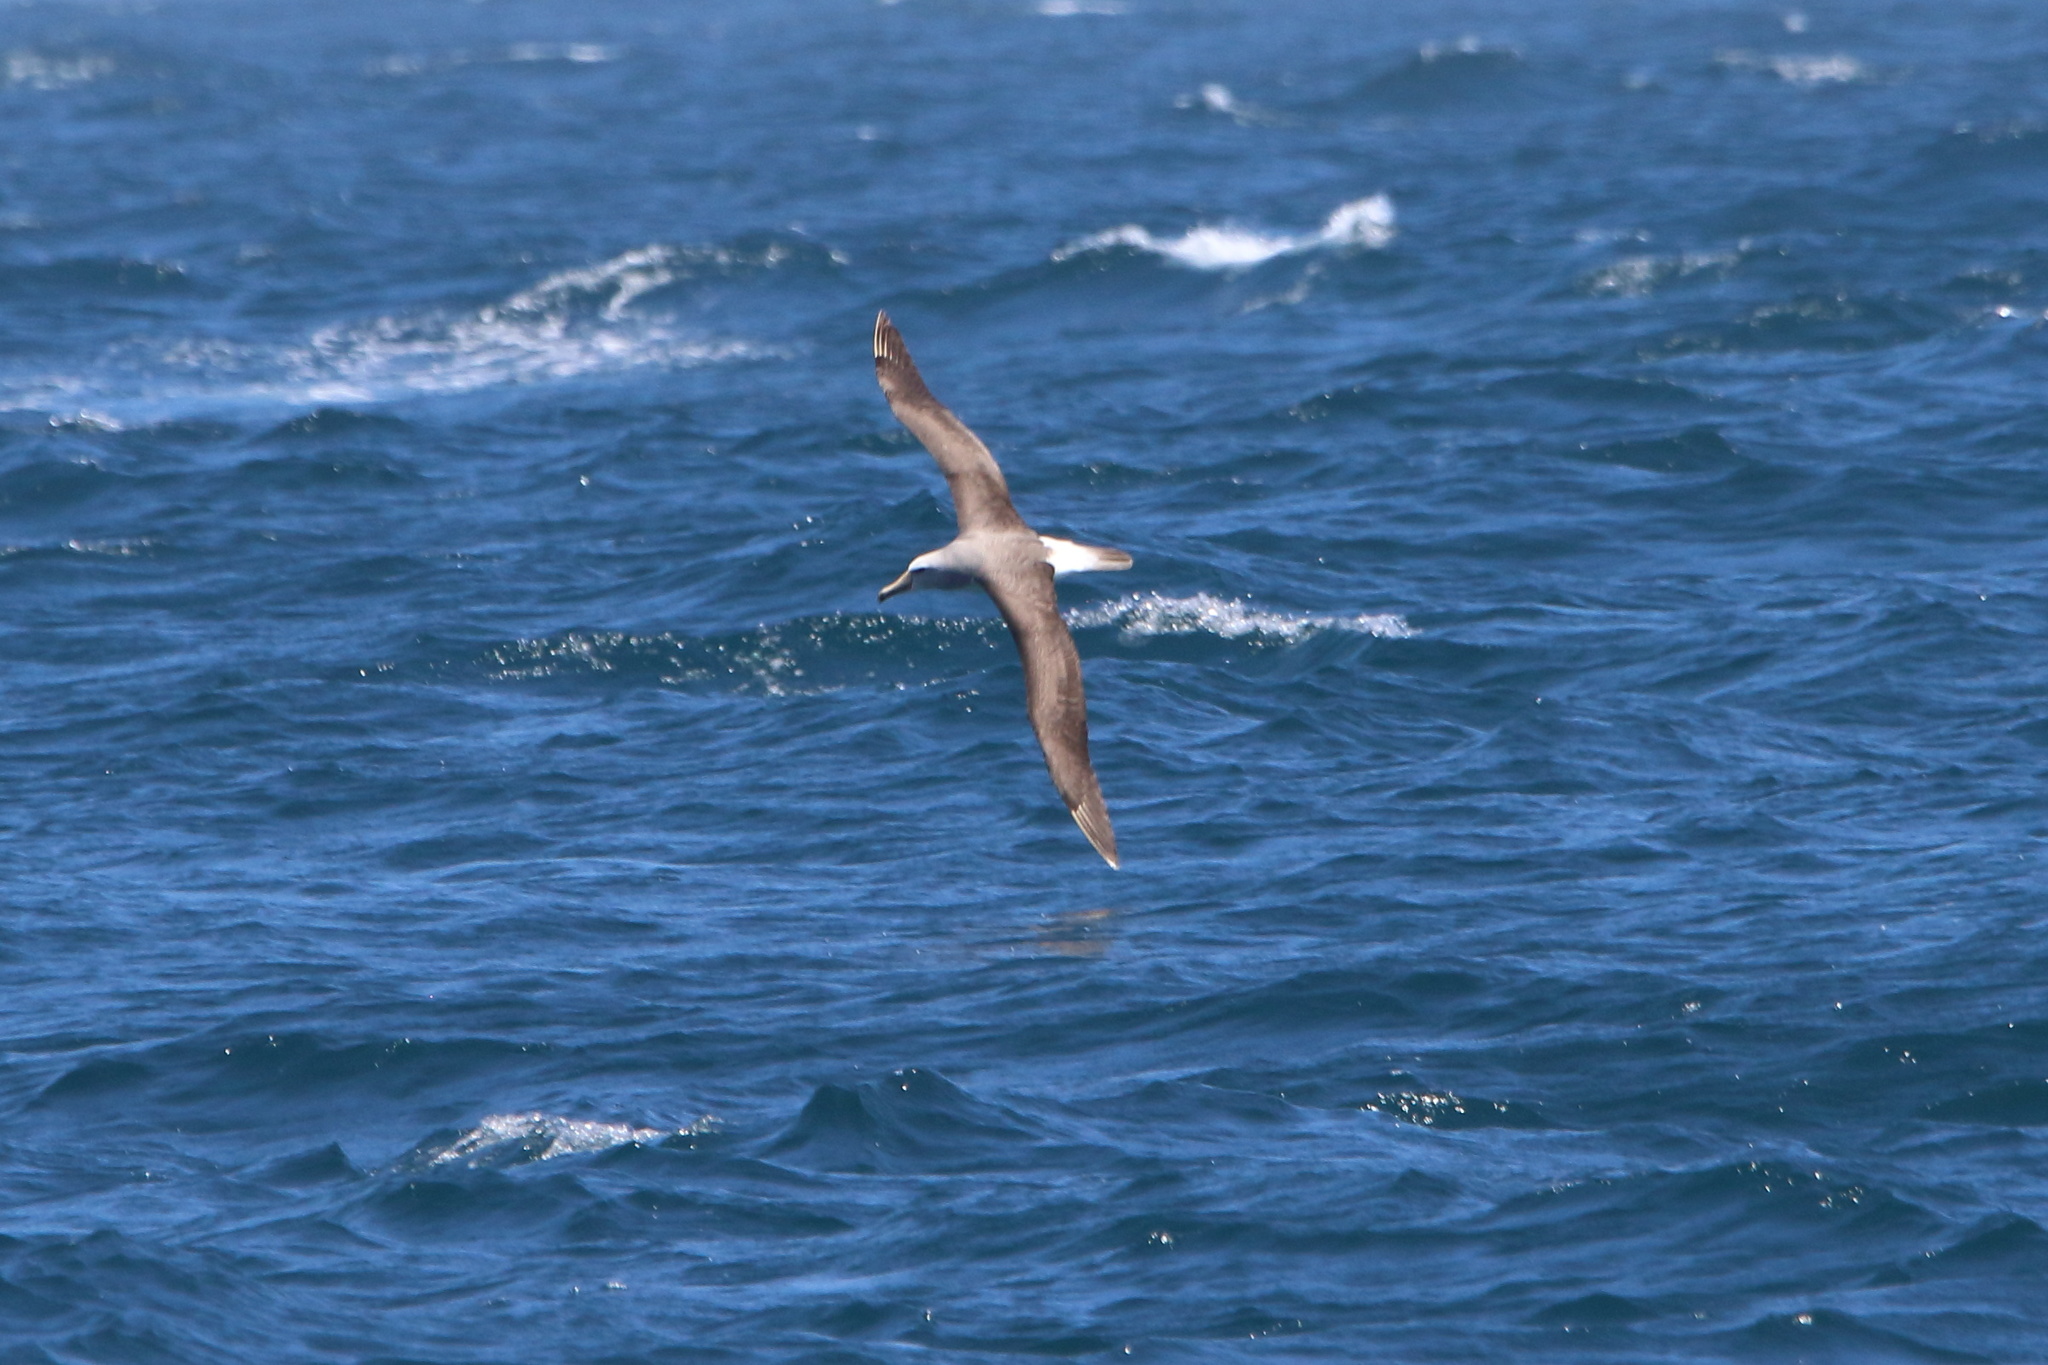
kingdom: Animalia
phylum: Chordata
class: Aves
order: Procellariiformes
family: Diomedeidae
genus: Thalassarche
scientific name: Thalassarche salvini
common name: Salvin's albatross
